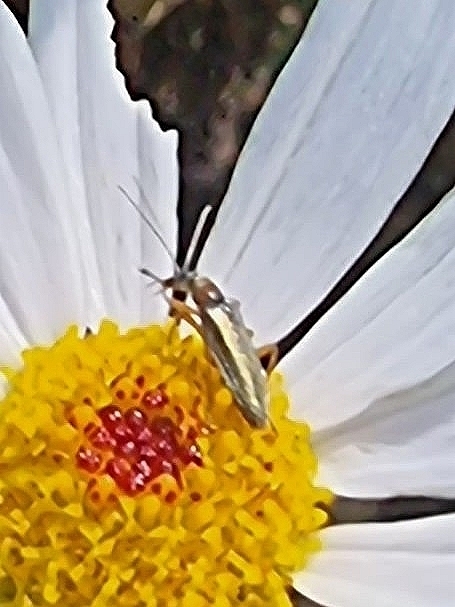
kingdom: Animalia
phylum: Arthropoda
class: Insecta
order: Coleoptera
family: Oedemeridae
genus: Stenostoma
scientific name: Stenostoma lowei
